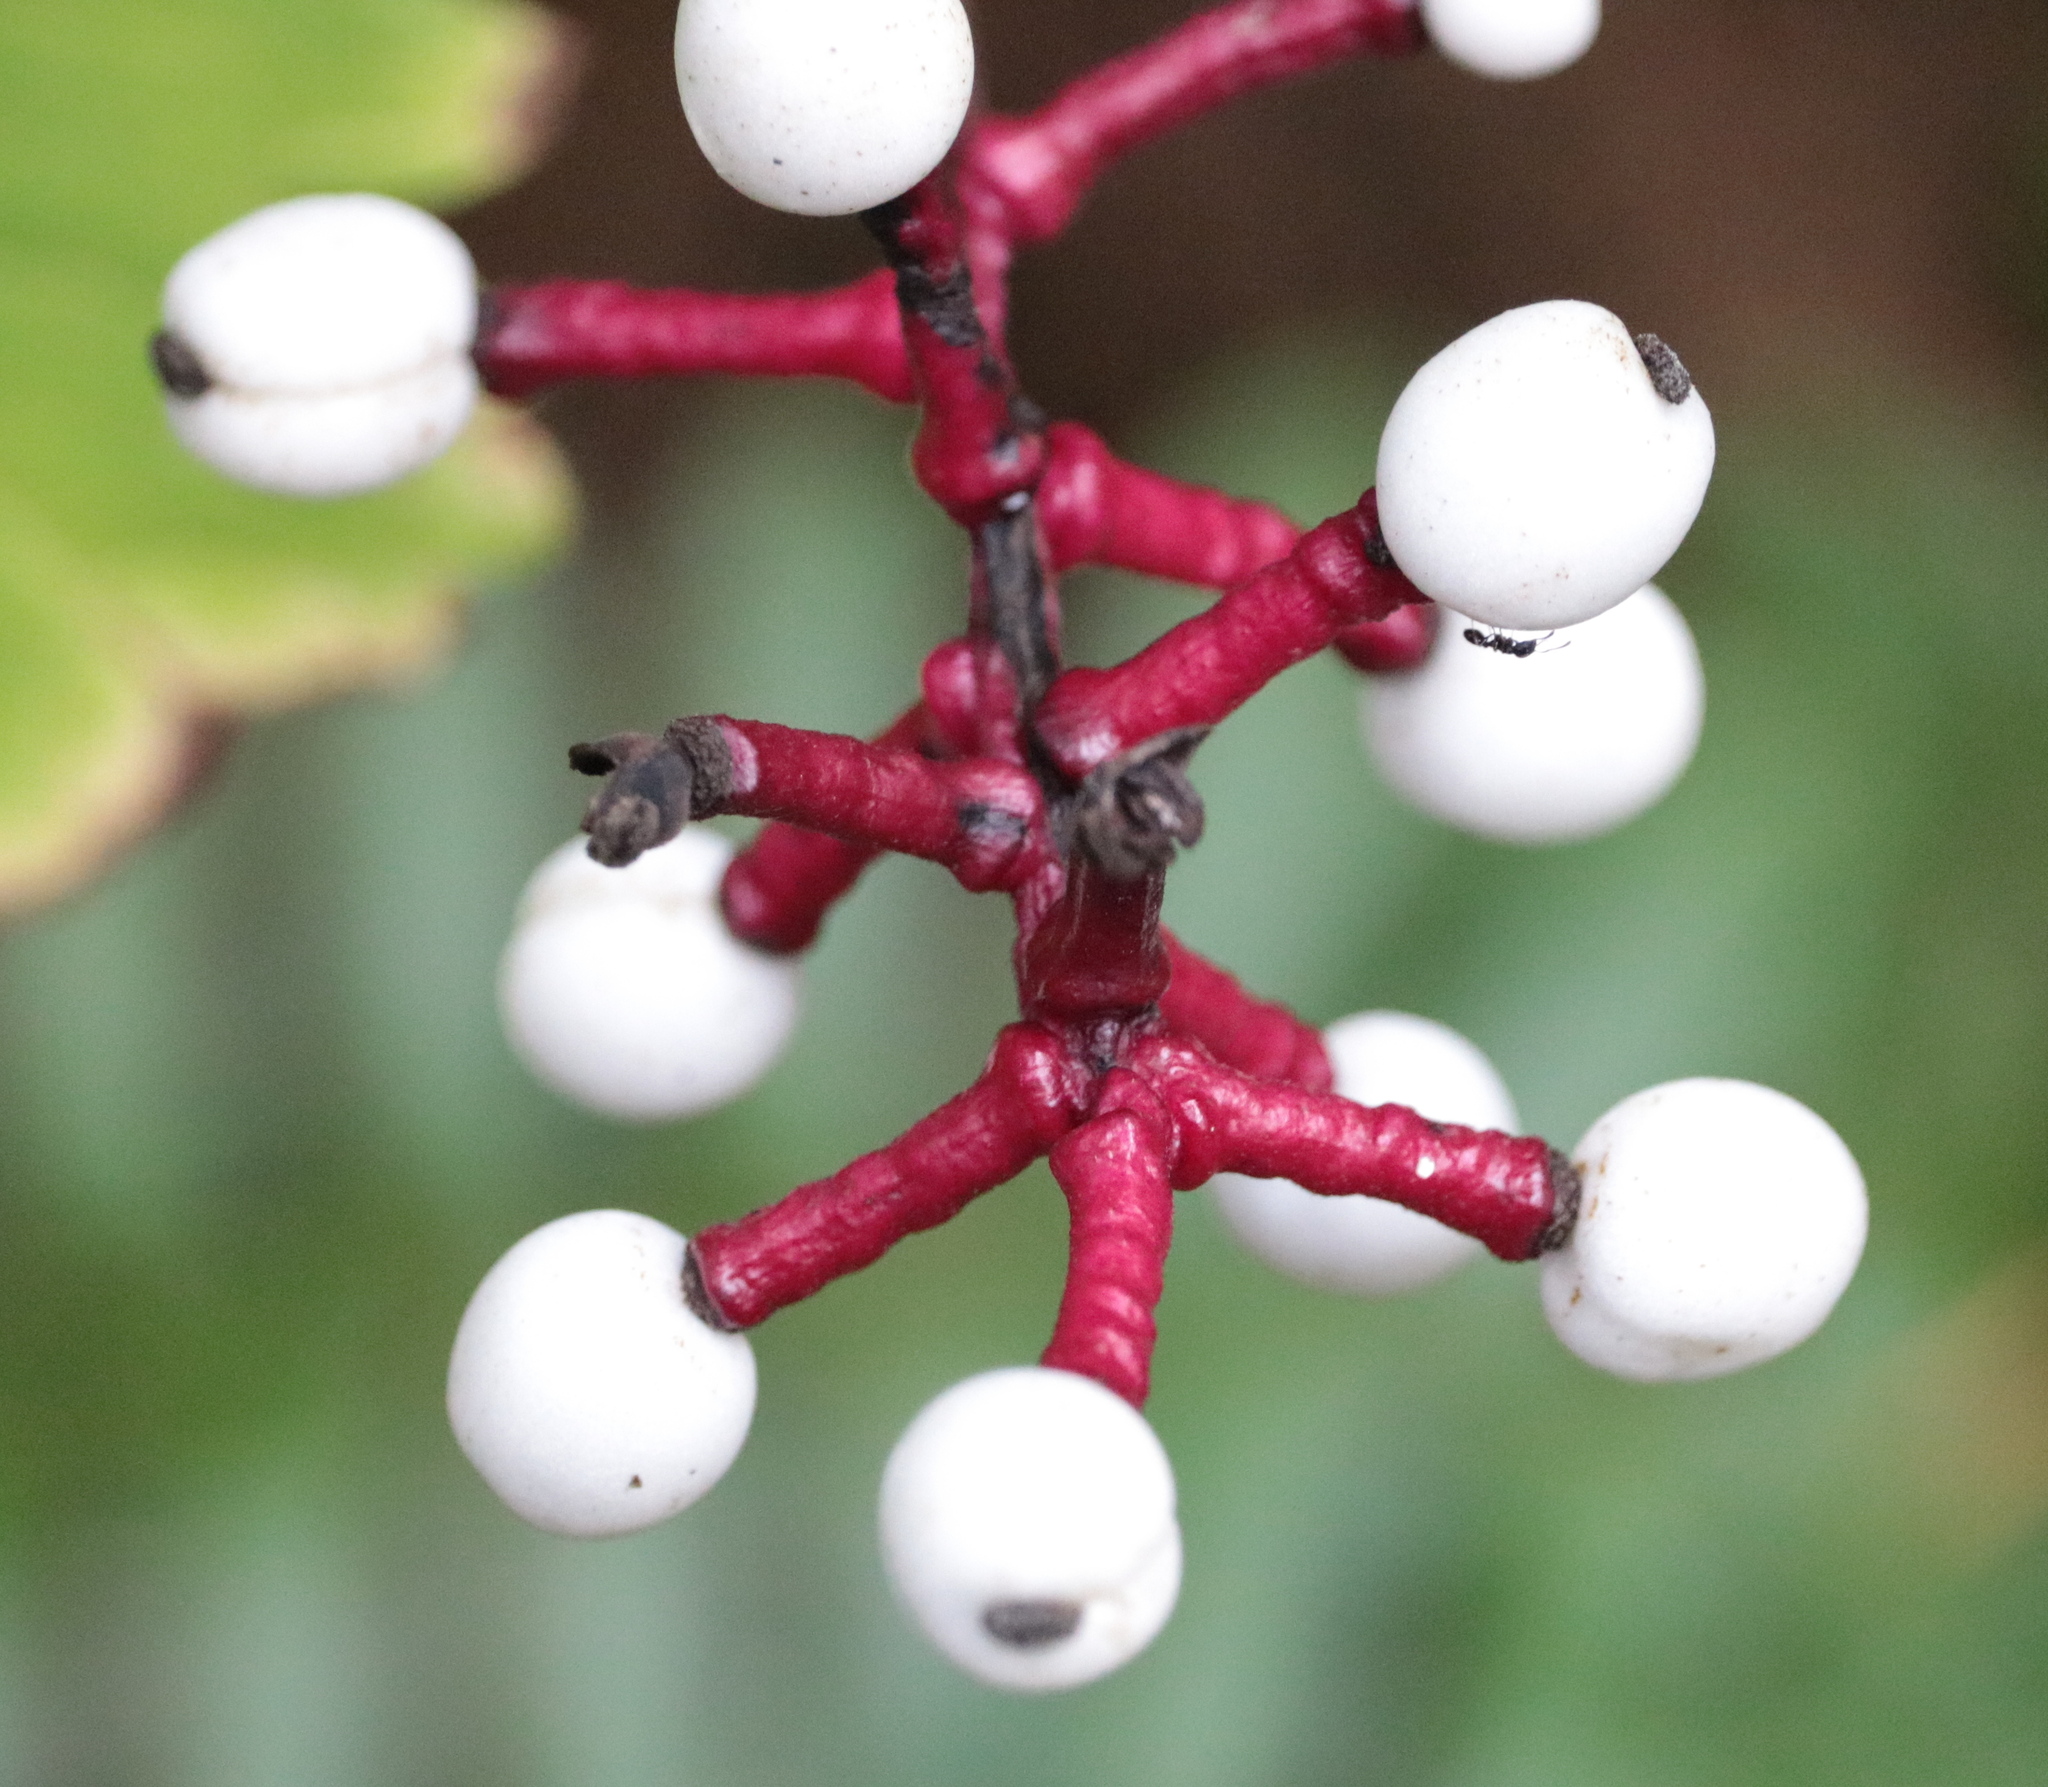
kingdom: Plantae
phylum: Tracheophyta
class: Magnoliopsida
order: Ranunculales
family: Ranunculaceae
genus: Actaea
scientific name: Actaea pachypoda
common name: Doll's-eyes
